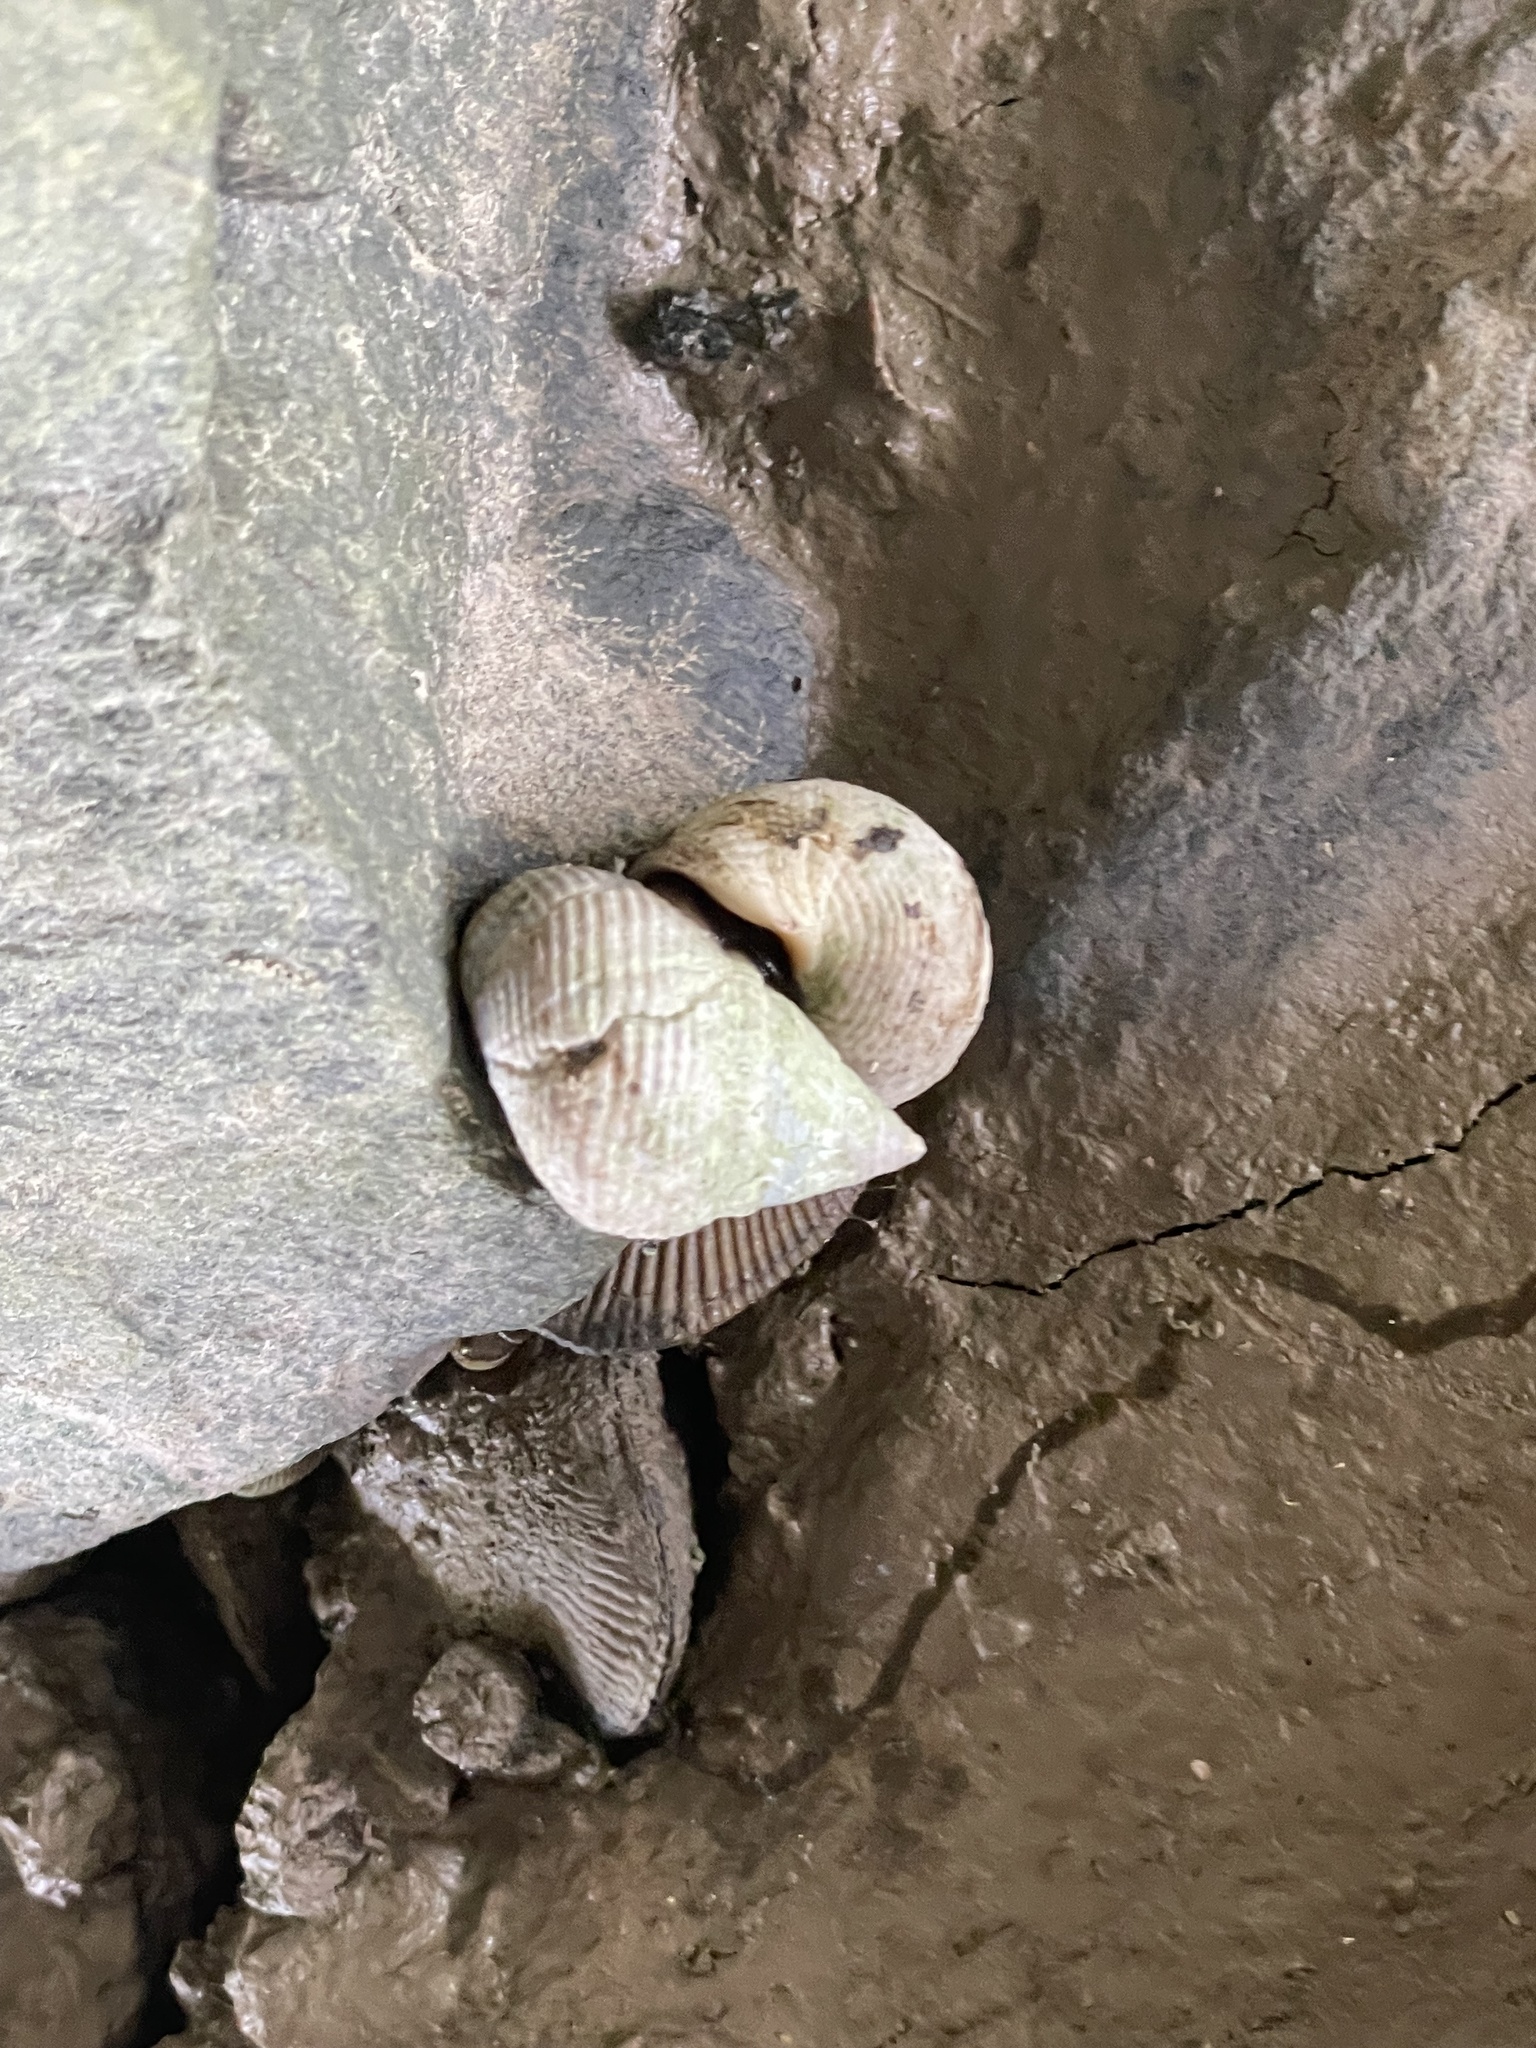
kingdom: Animalia
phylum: Mollusca
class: Gastropoda
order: Littorinimorpha
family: Littorinidae
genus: Littoraria
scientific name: Littoraria irrorata
